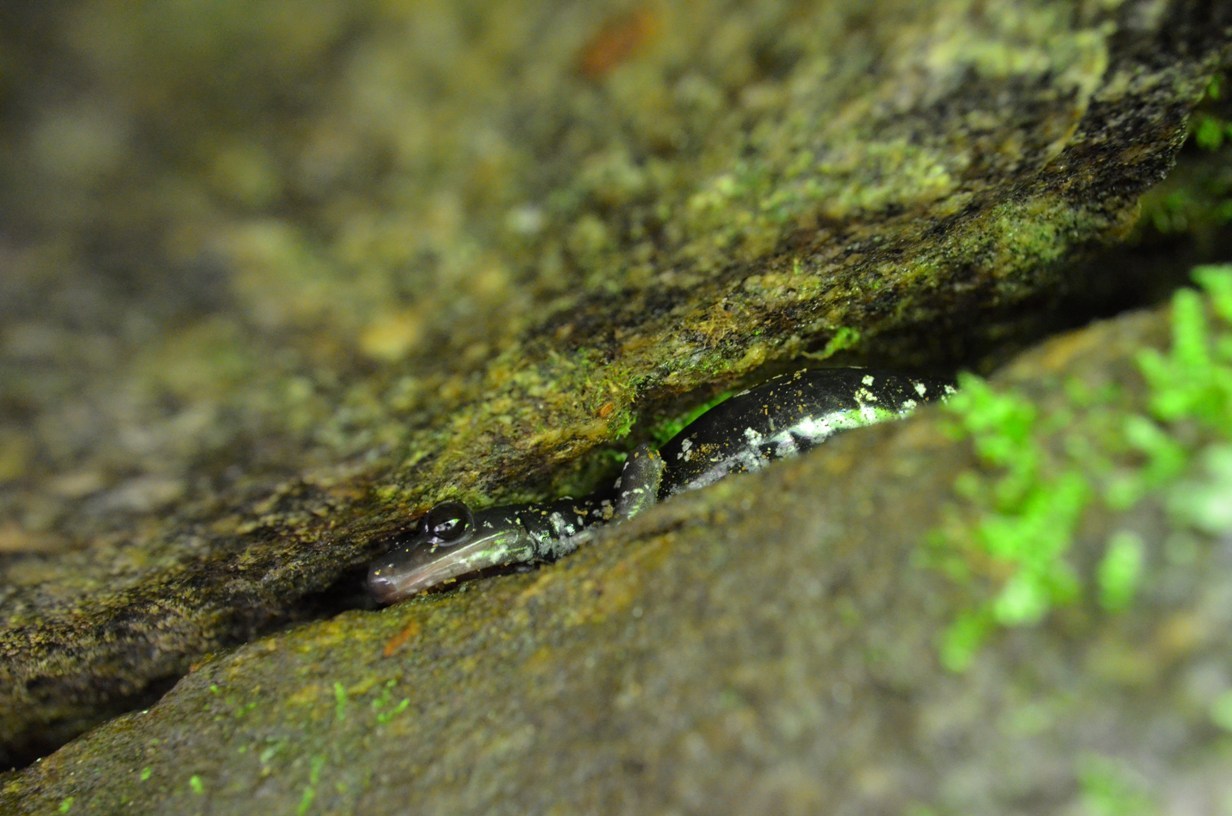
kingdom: Animalia
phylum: Chordata
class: Amphibia
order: Caudata
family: Plethodontidae
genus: Plethodon
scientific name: Plethodon yonahlossee
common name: Yonahlossee salamander
